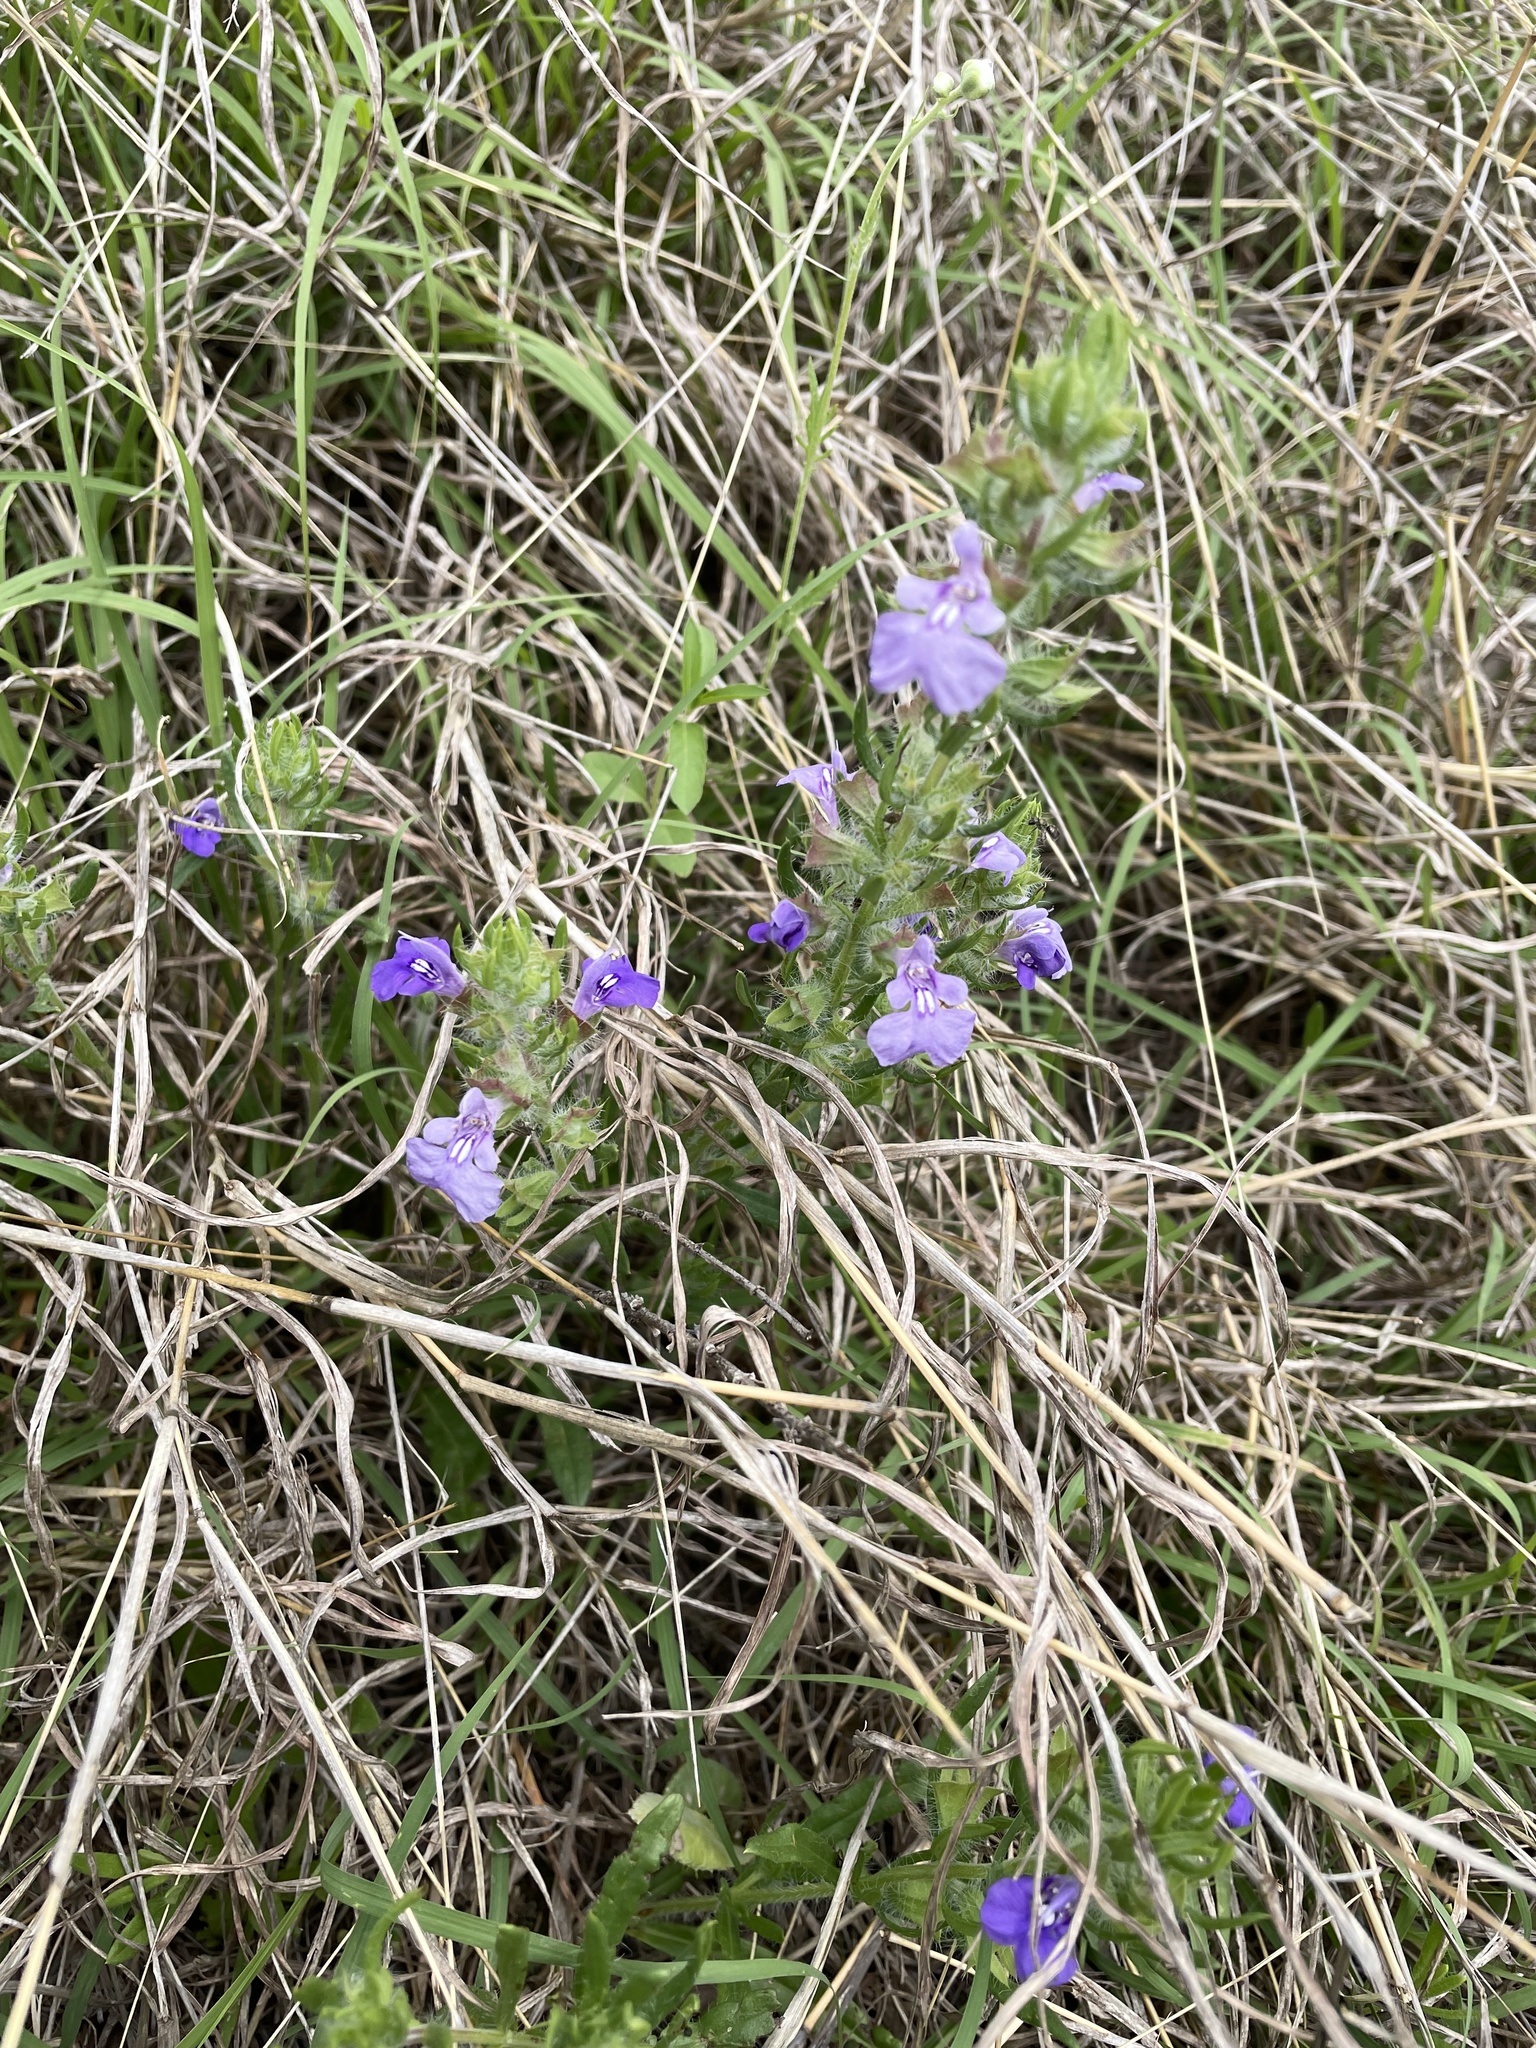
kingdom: Plantae
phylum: Tracheophyta
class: Magnoliopsida
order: Lamiales
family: Lamiaceae
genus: Salvia
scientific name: Salvia texana
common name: Texas sage
